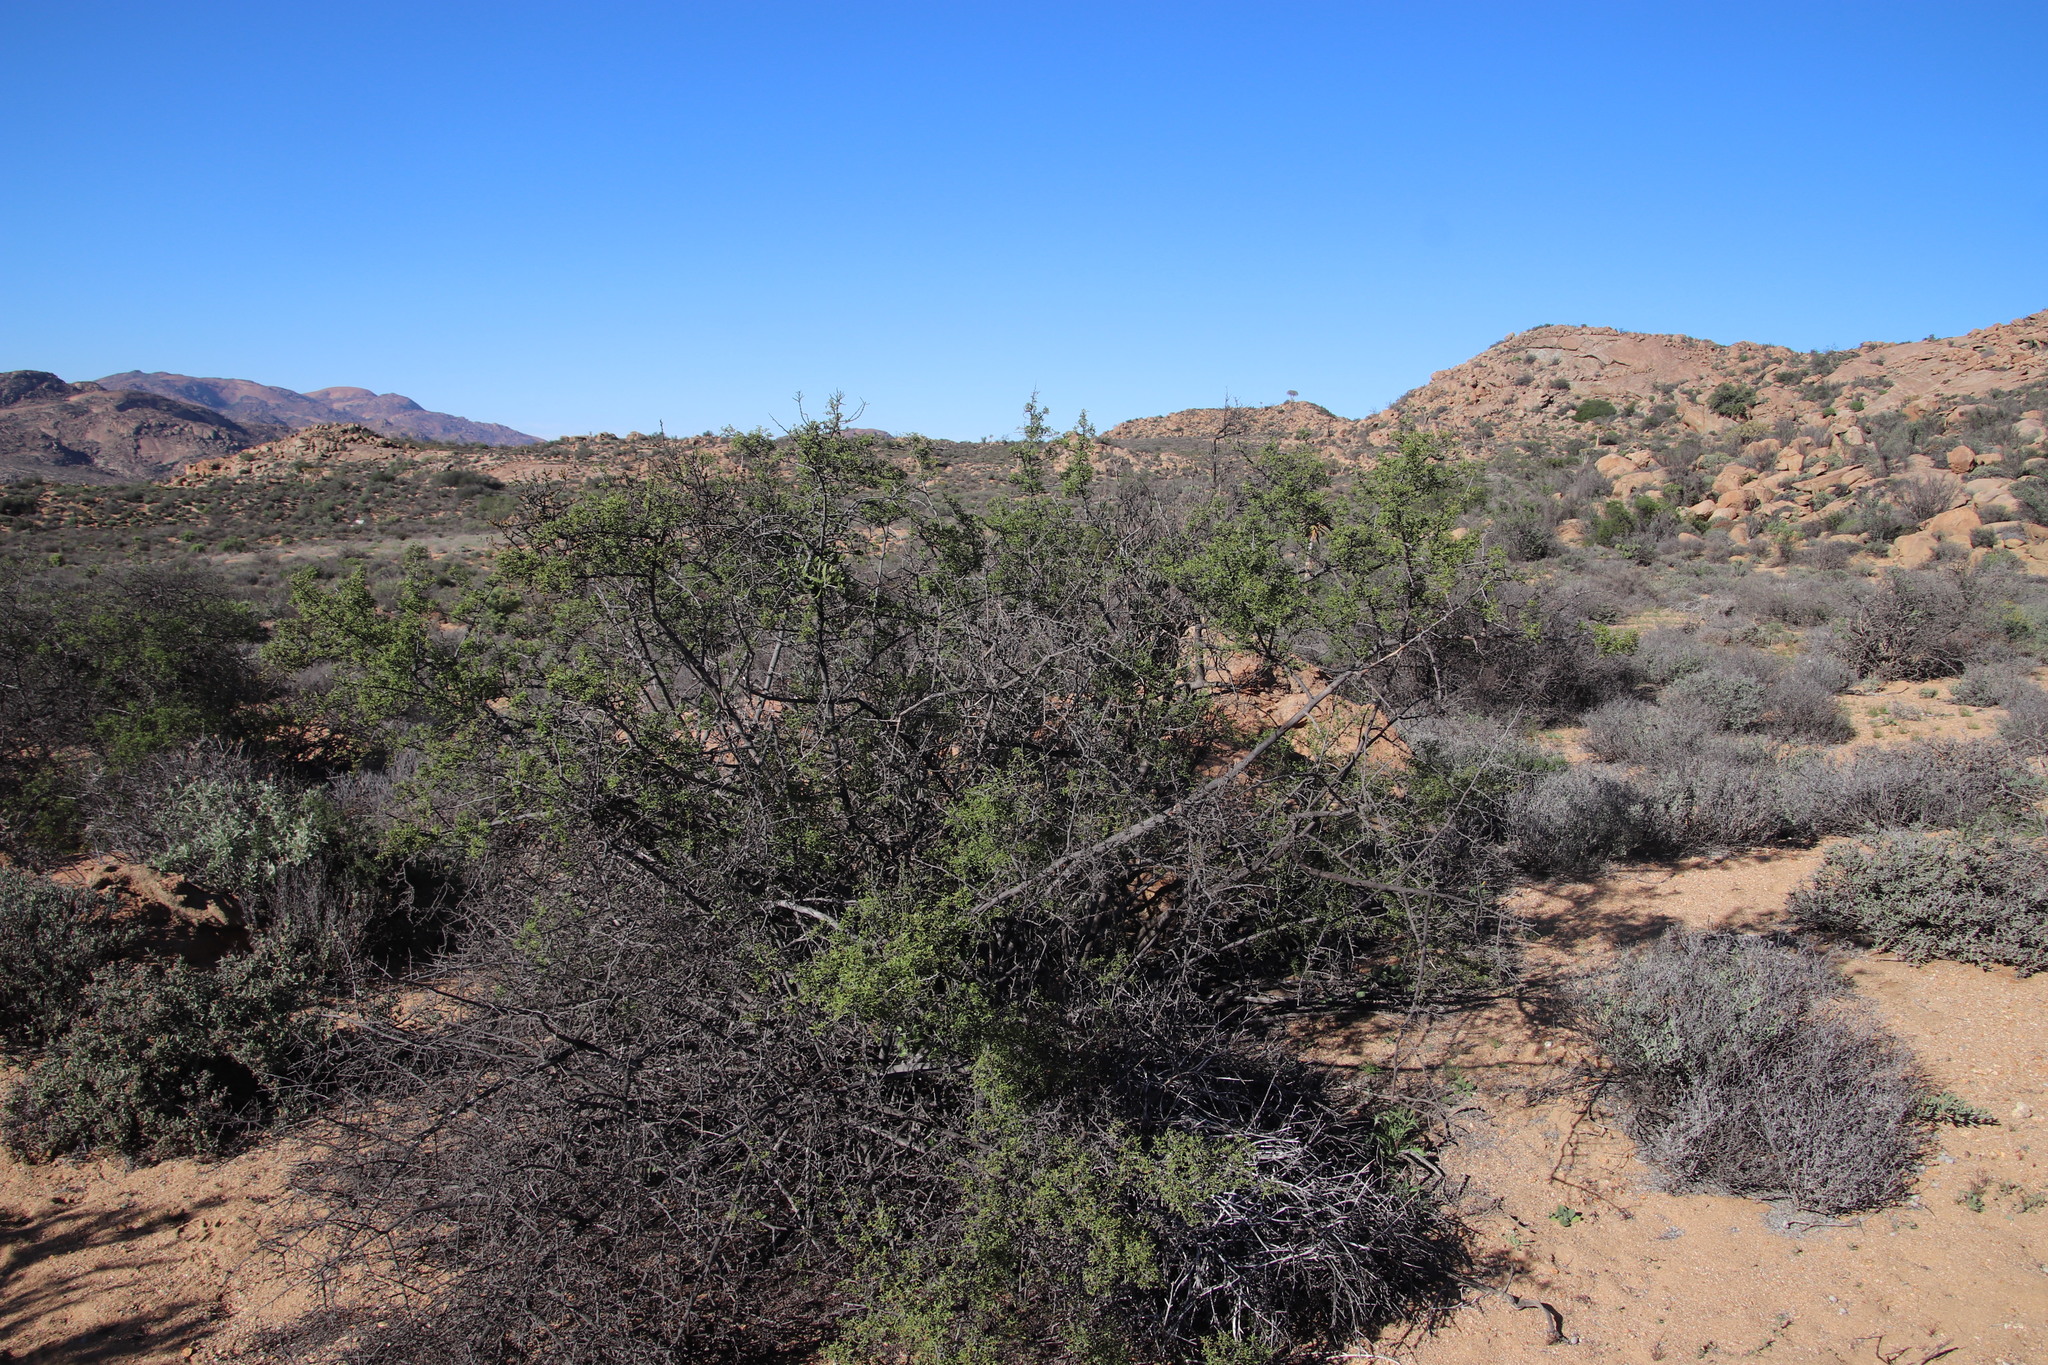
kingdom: Plantae
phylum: Tracheophyta
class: Magnoliopsida
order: Sapindales
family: Anacardiaceae
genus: Searsia
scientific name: Searsia undulata
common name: Namaqua kunibush
